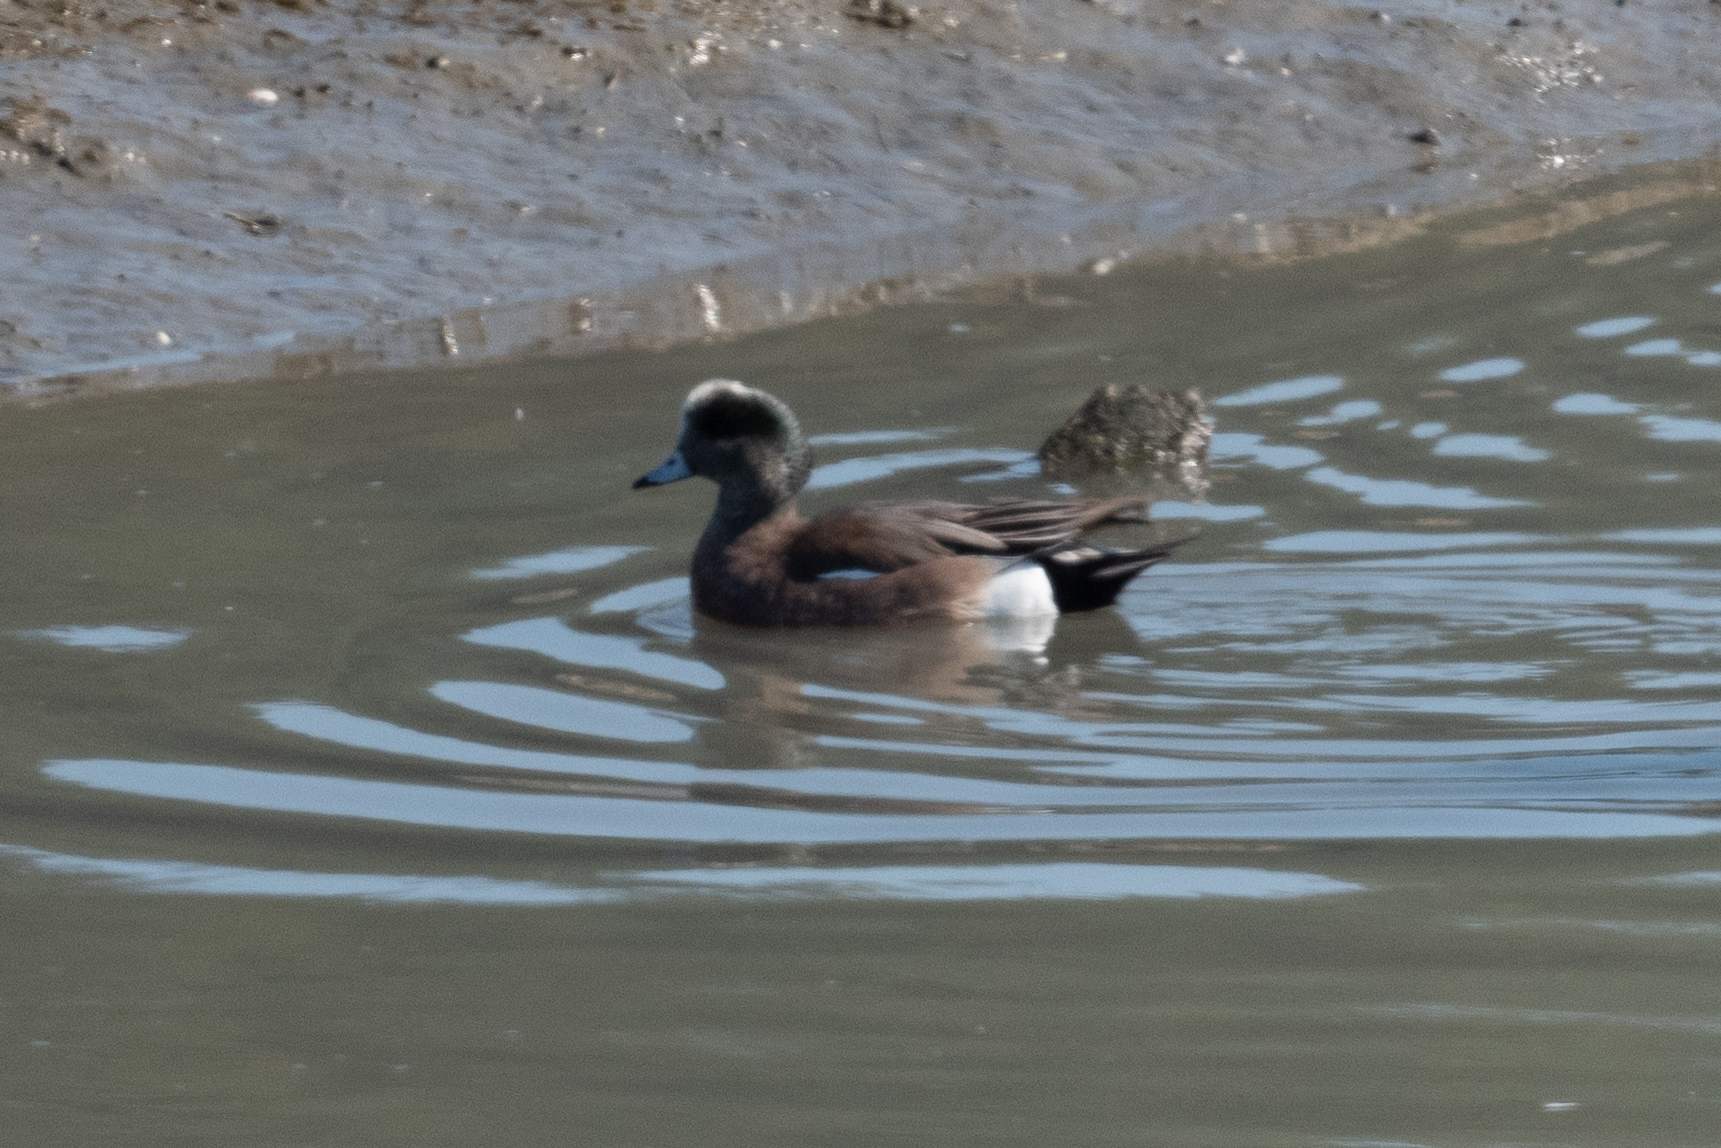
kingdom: Animalia
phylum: Chordata
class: Aves
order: Anseriformes
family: Anatidae
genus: Mareca
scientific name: Mareca americana
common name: American wigeon
